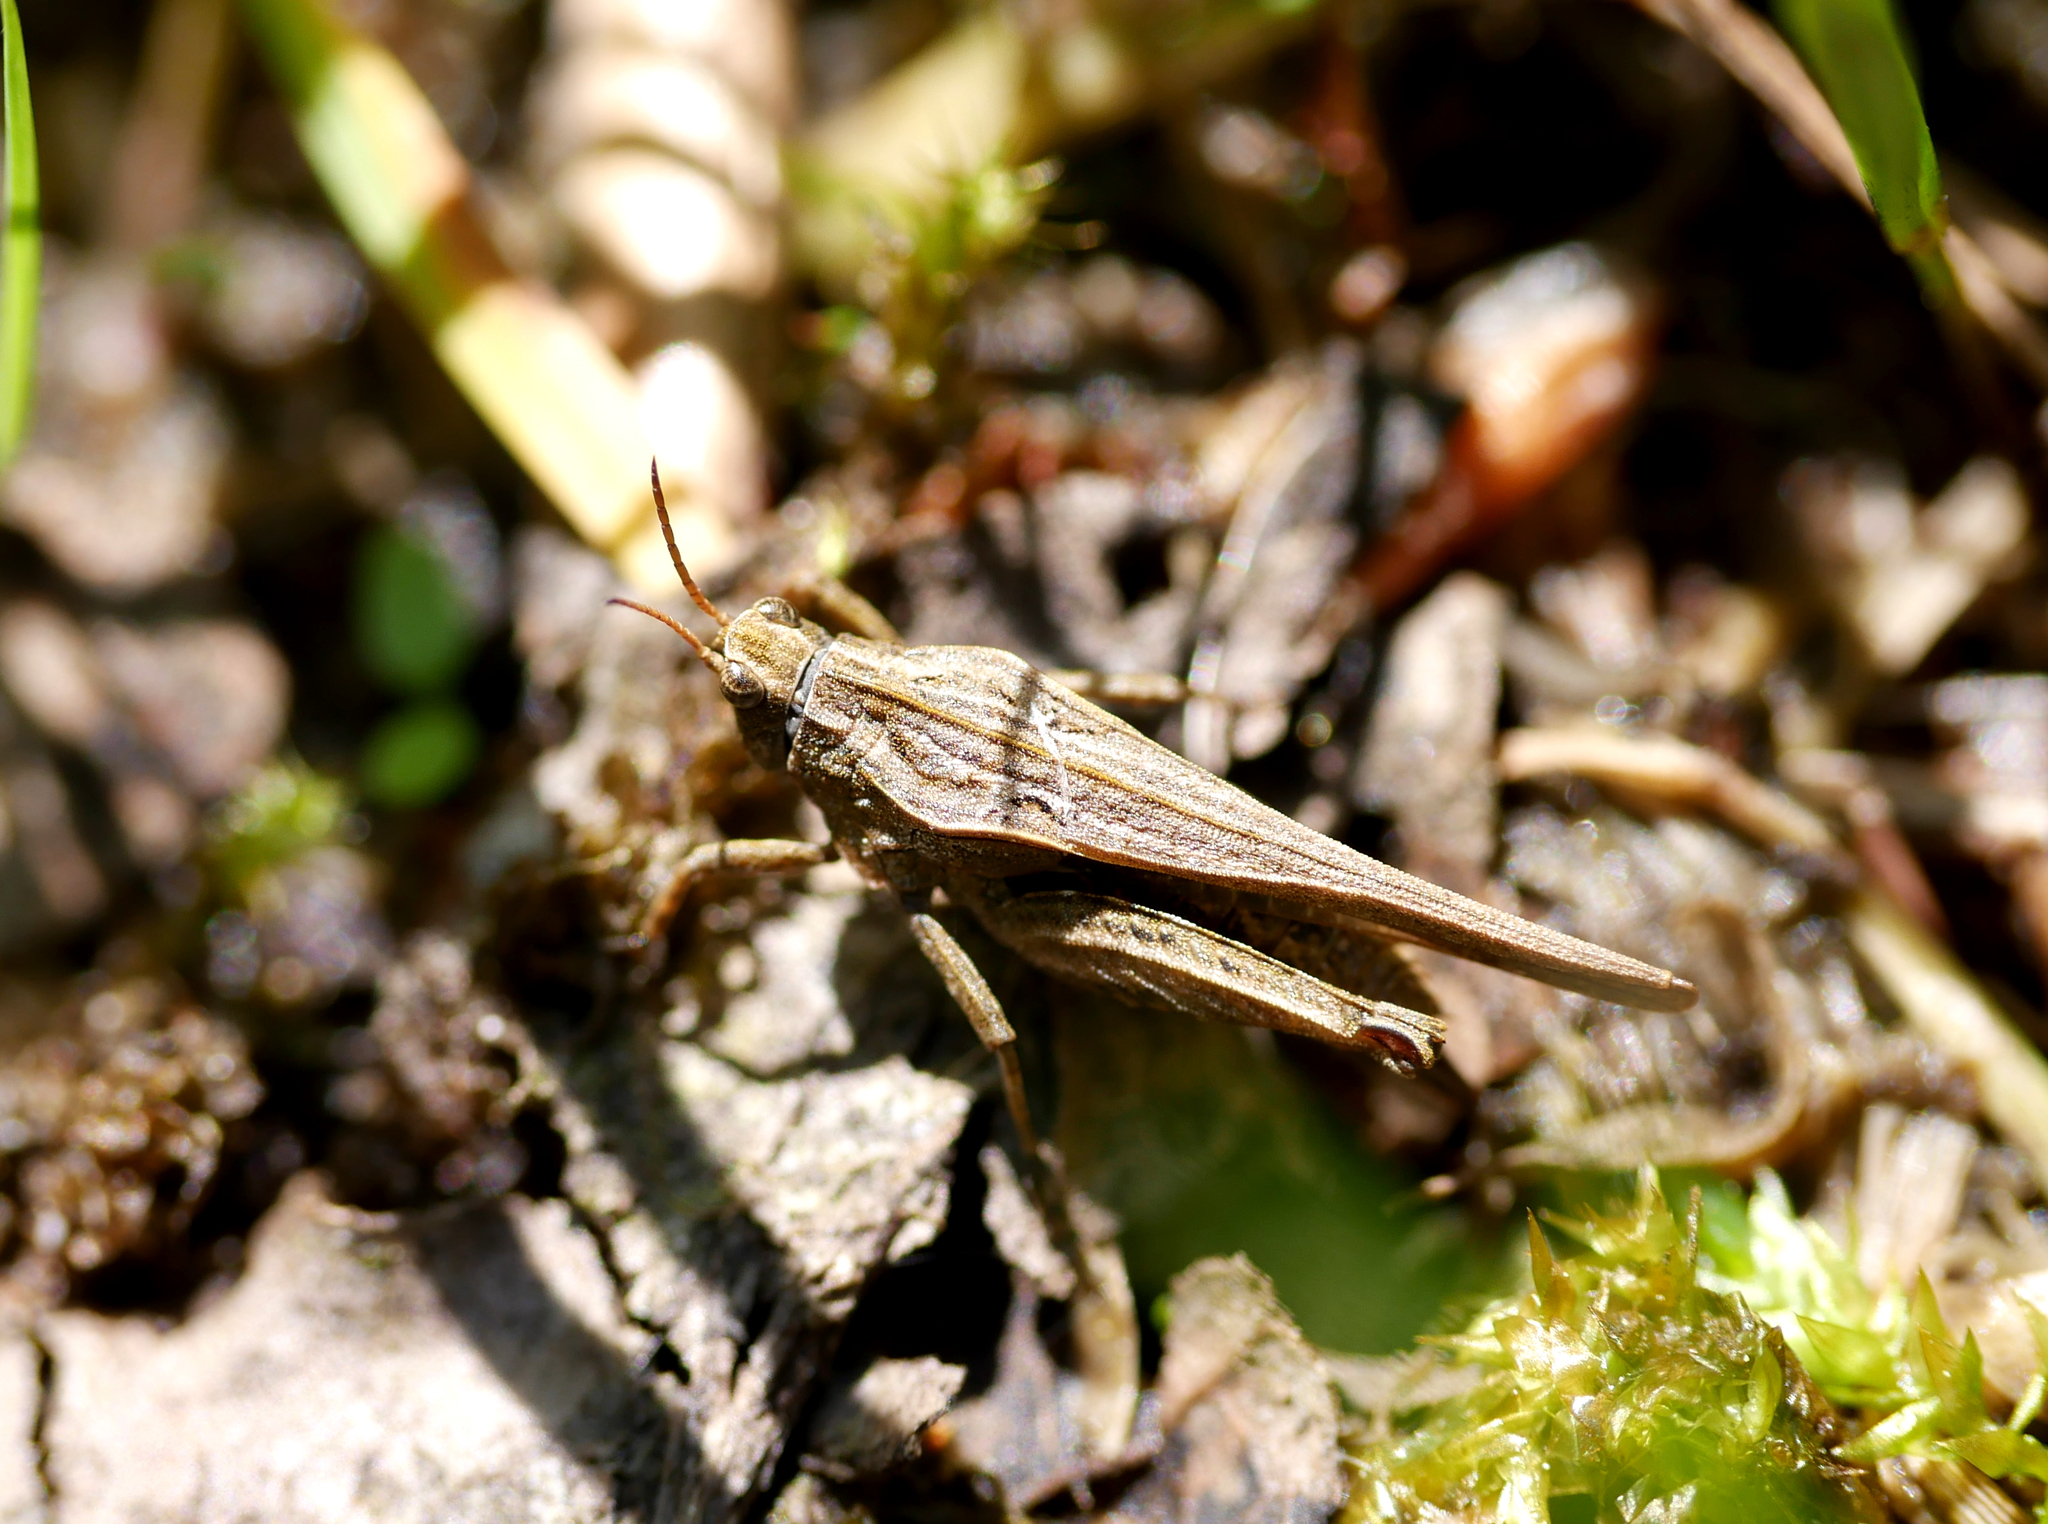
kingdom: Animalia
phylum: Arthropoda
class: Insecta
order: Orthoptera
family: Tetrigidae
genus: Tetrix
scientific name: Tetrix subulata
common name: Slender ground-hopper
